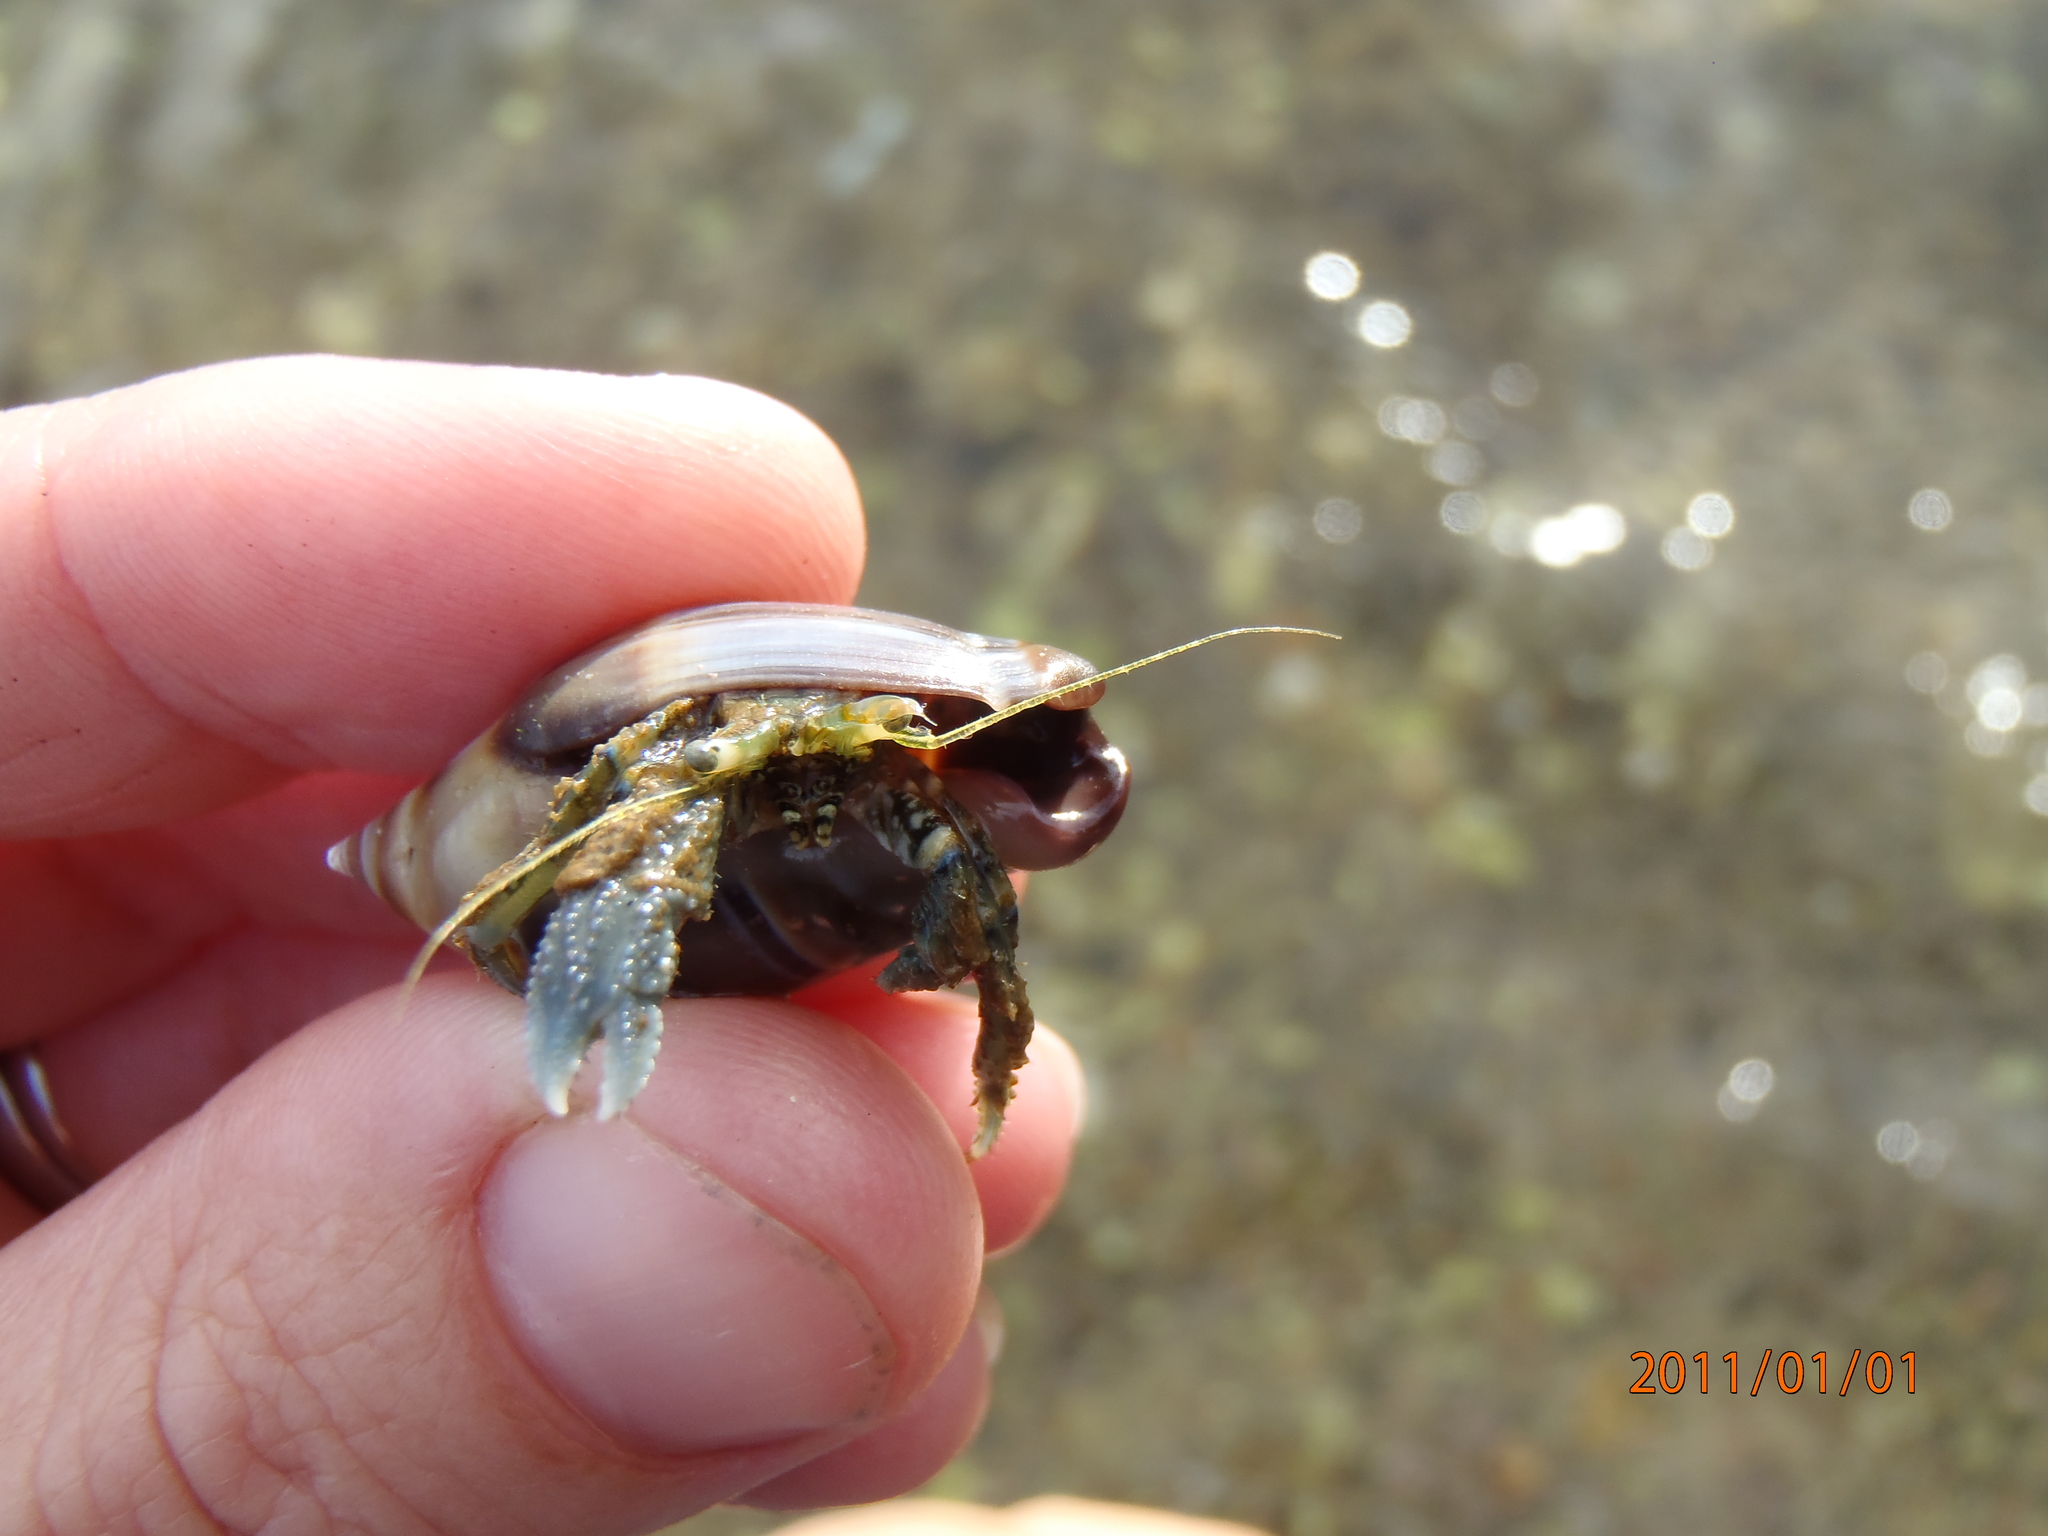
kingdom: Animalia
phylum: Arthropoda
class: Malacostraca
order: Decapoda
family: Paguridae
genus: Pagurus
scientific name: Pagurus novizealandiae
